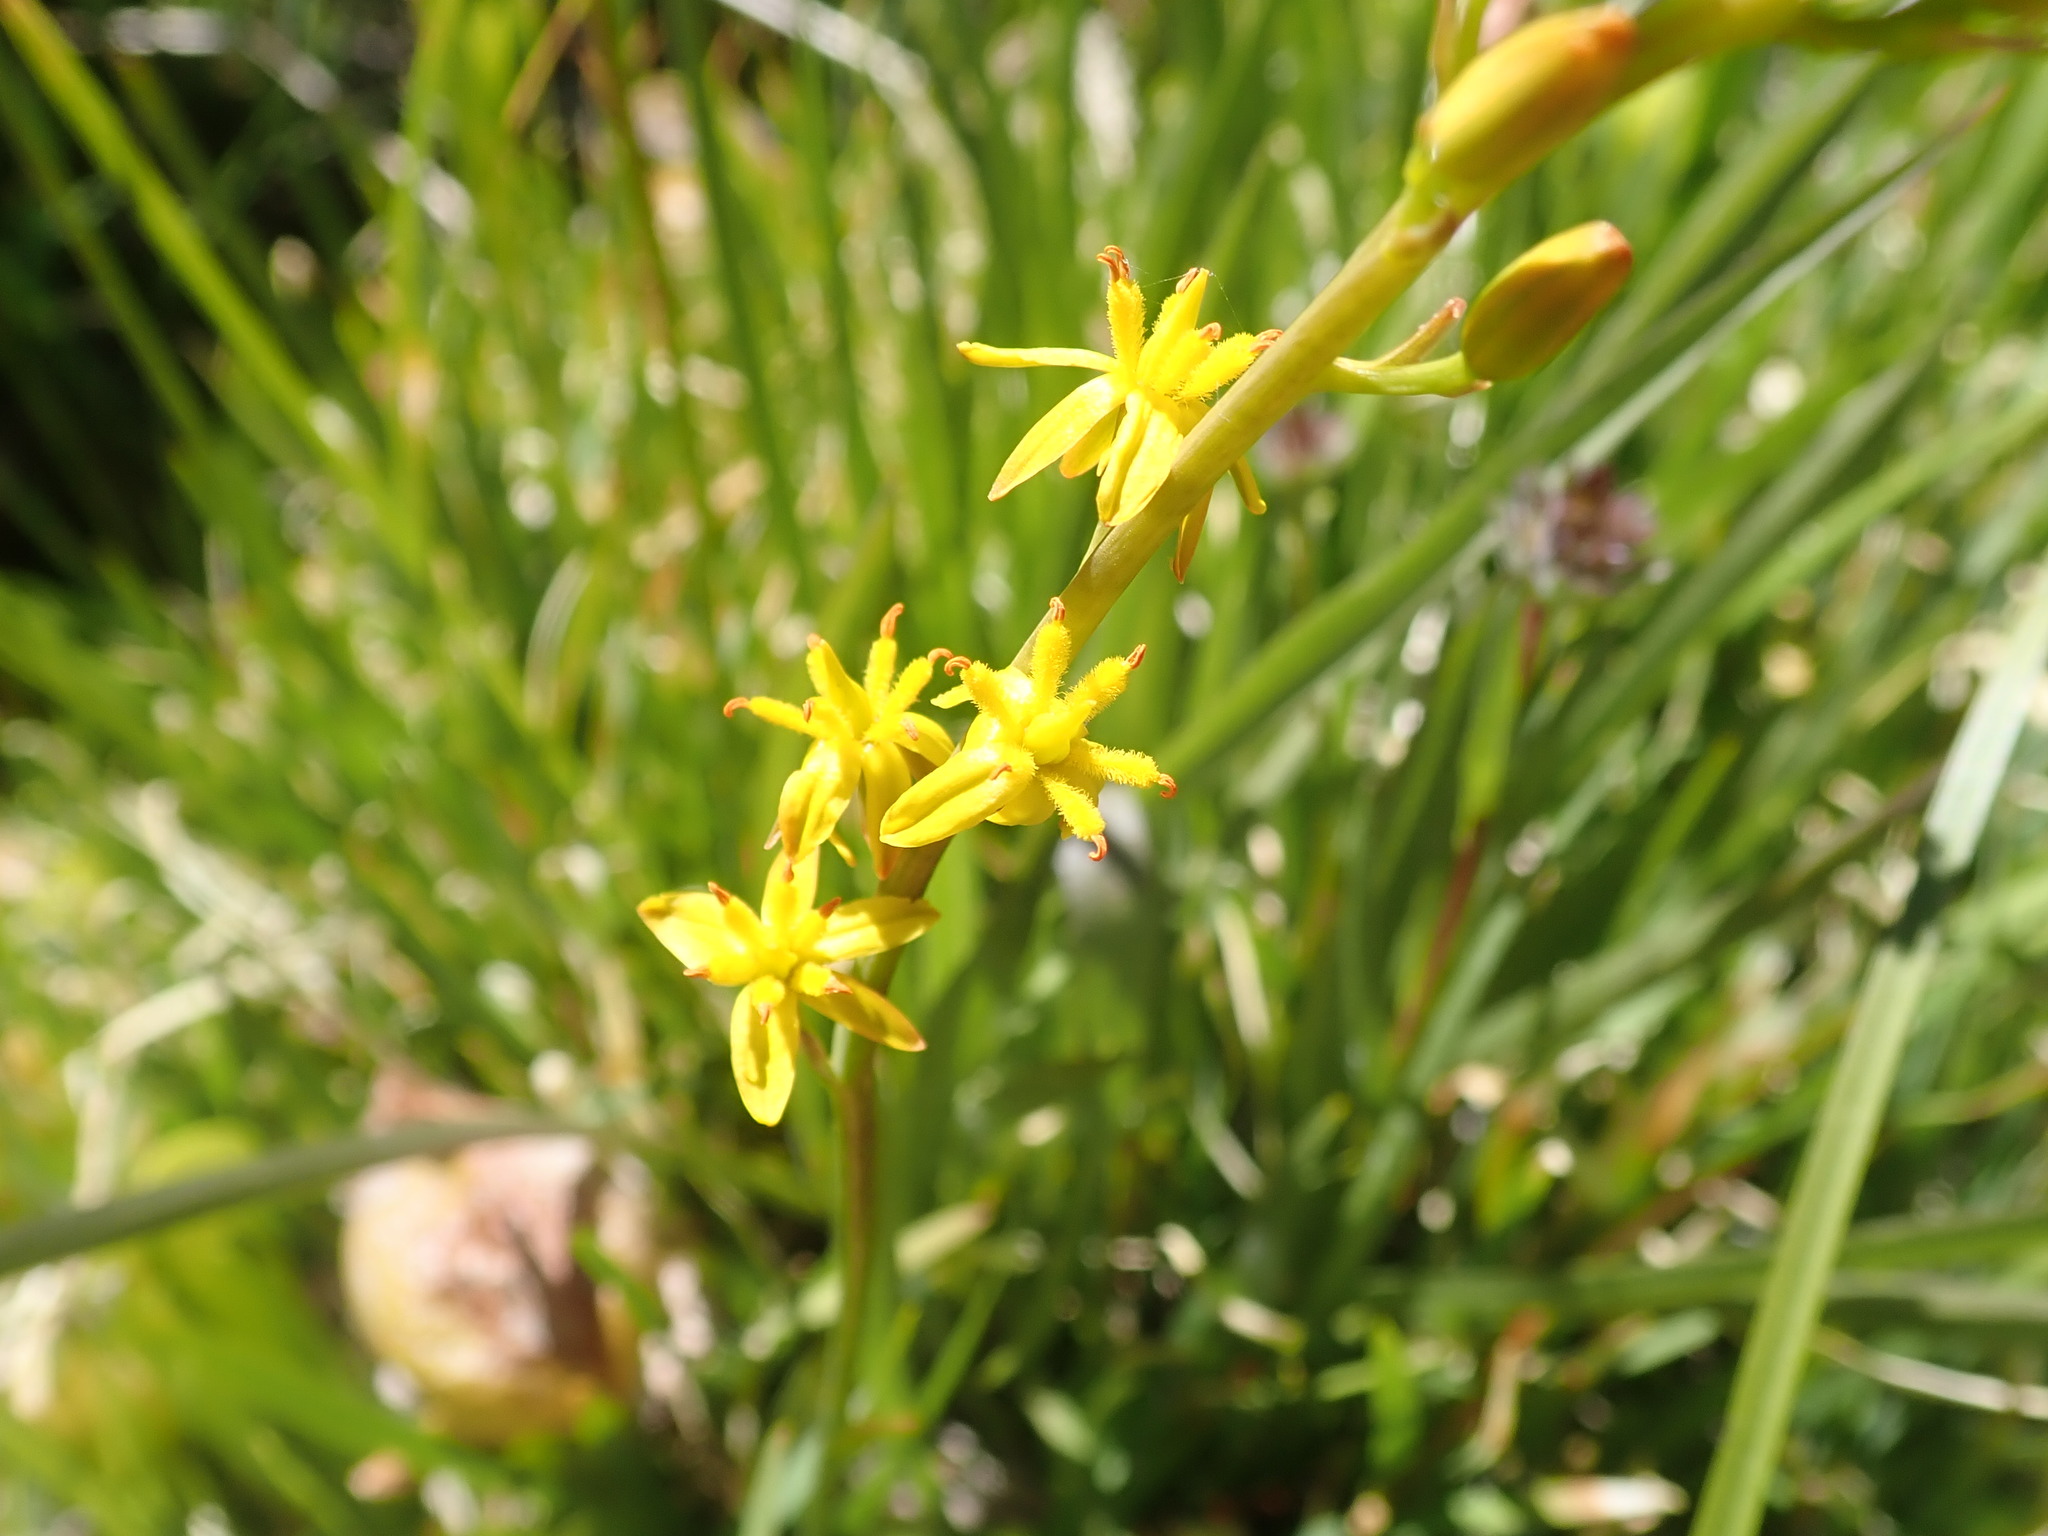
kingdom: Plantae
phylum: Tracheophyta
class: Liliopsida
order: Dioscoreales
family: Nartheciaceae
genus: Narthecium
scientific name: Narthecium californicum
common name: California bog-asphodel
